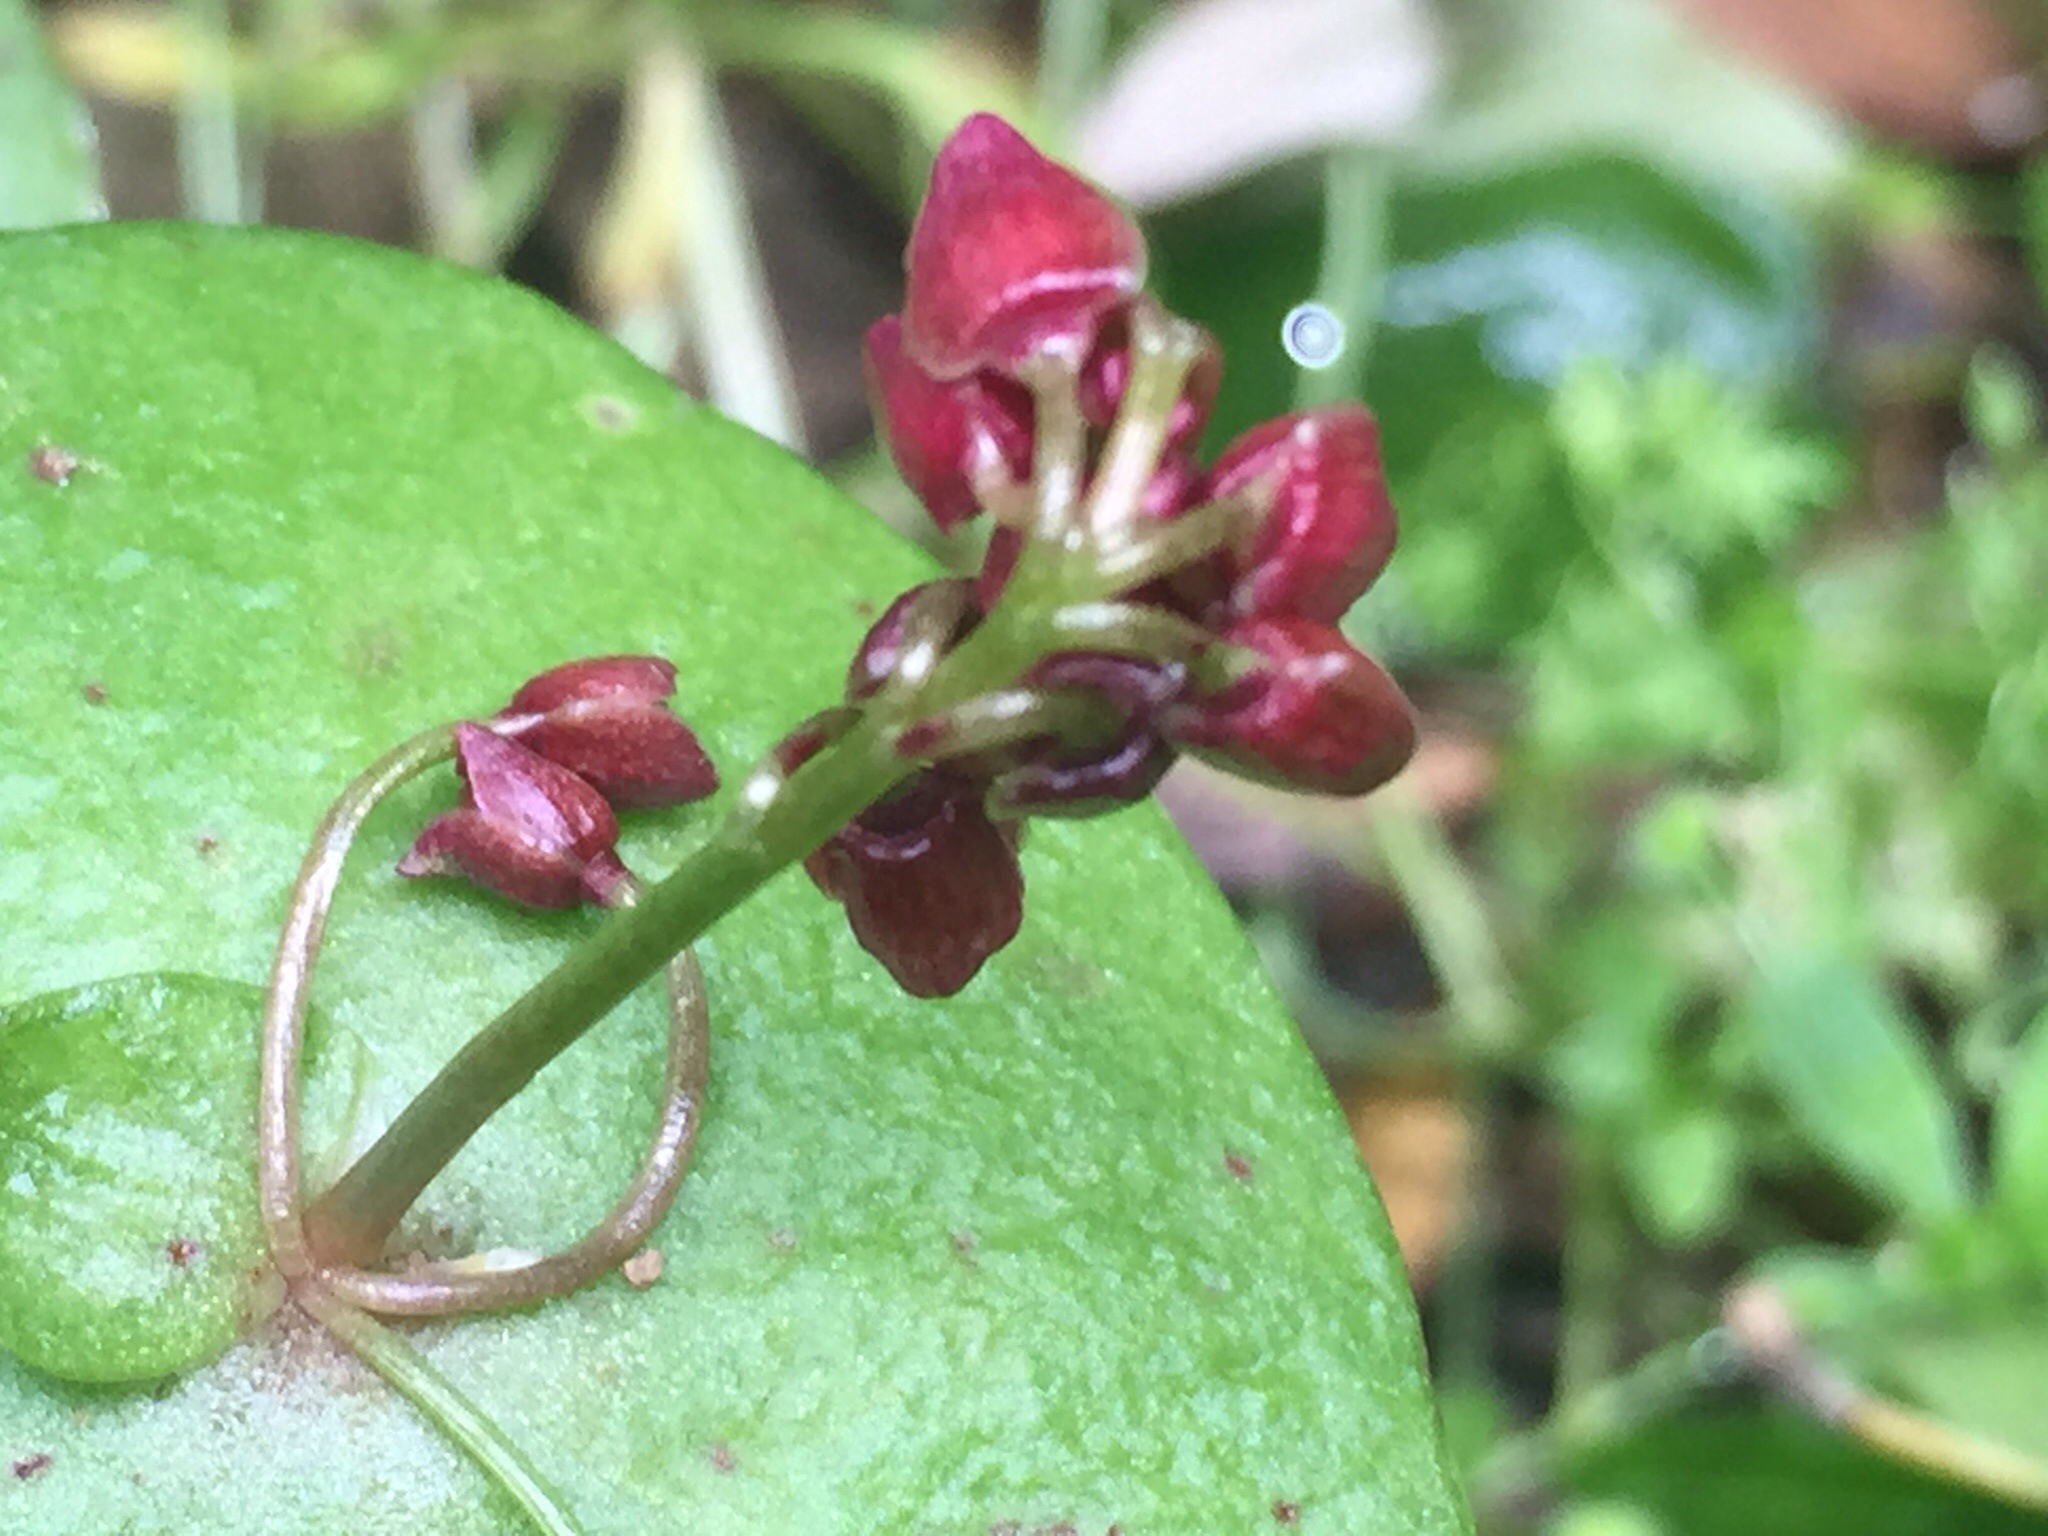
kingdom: Plantae
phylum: Tracheophyta
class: Magnoliopsida
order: Caryophyllales
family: Montiaceae
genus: Claytonia
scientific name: Claytonia perfoliata
